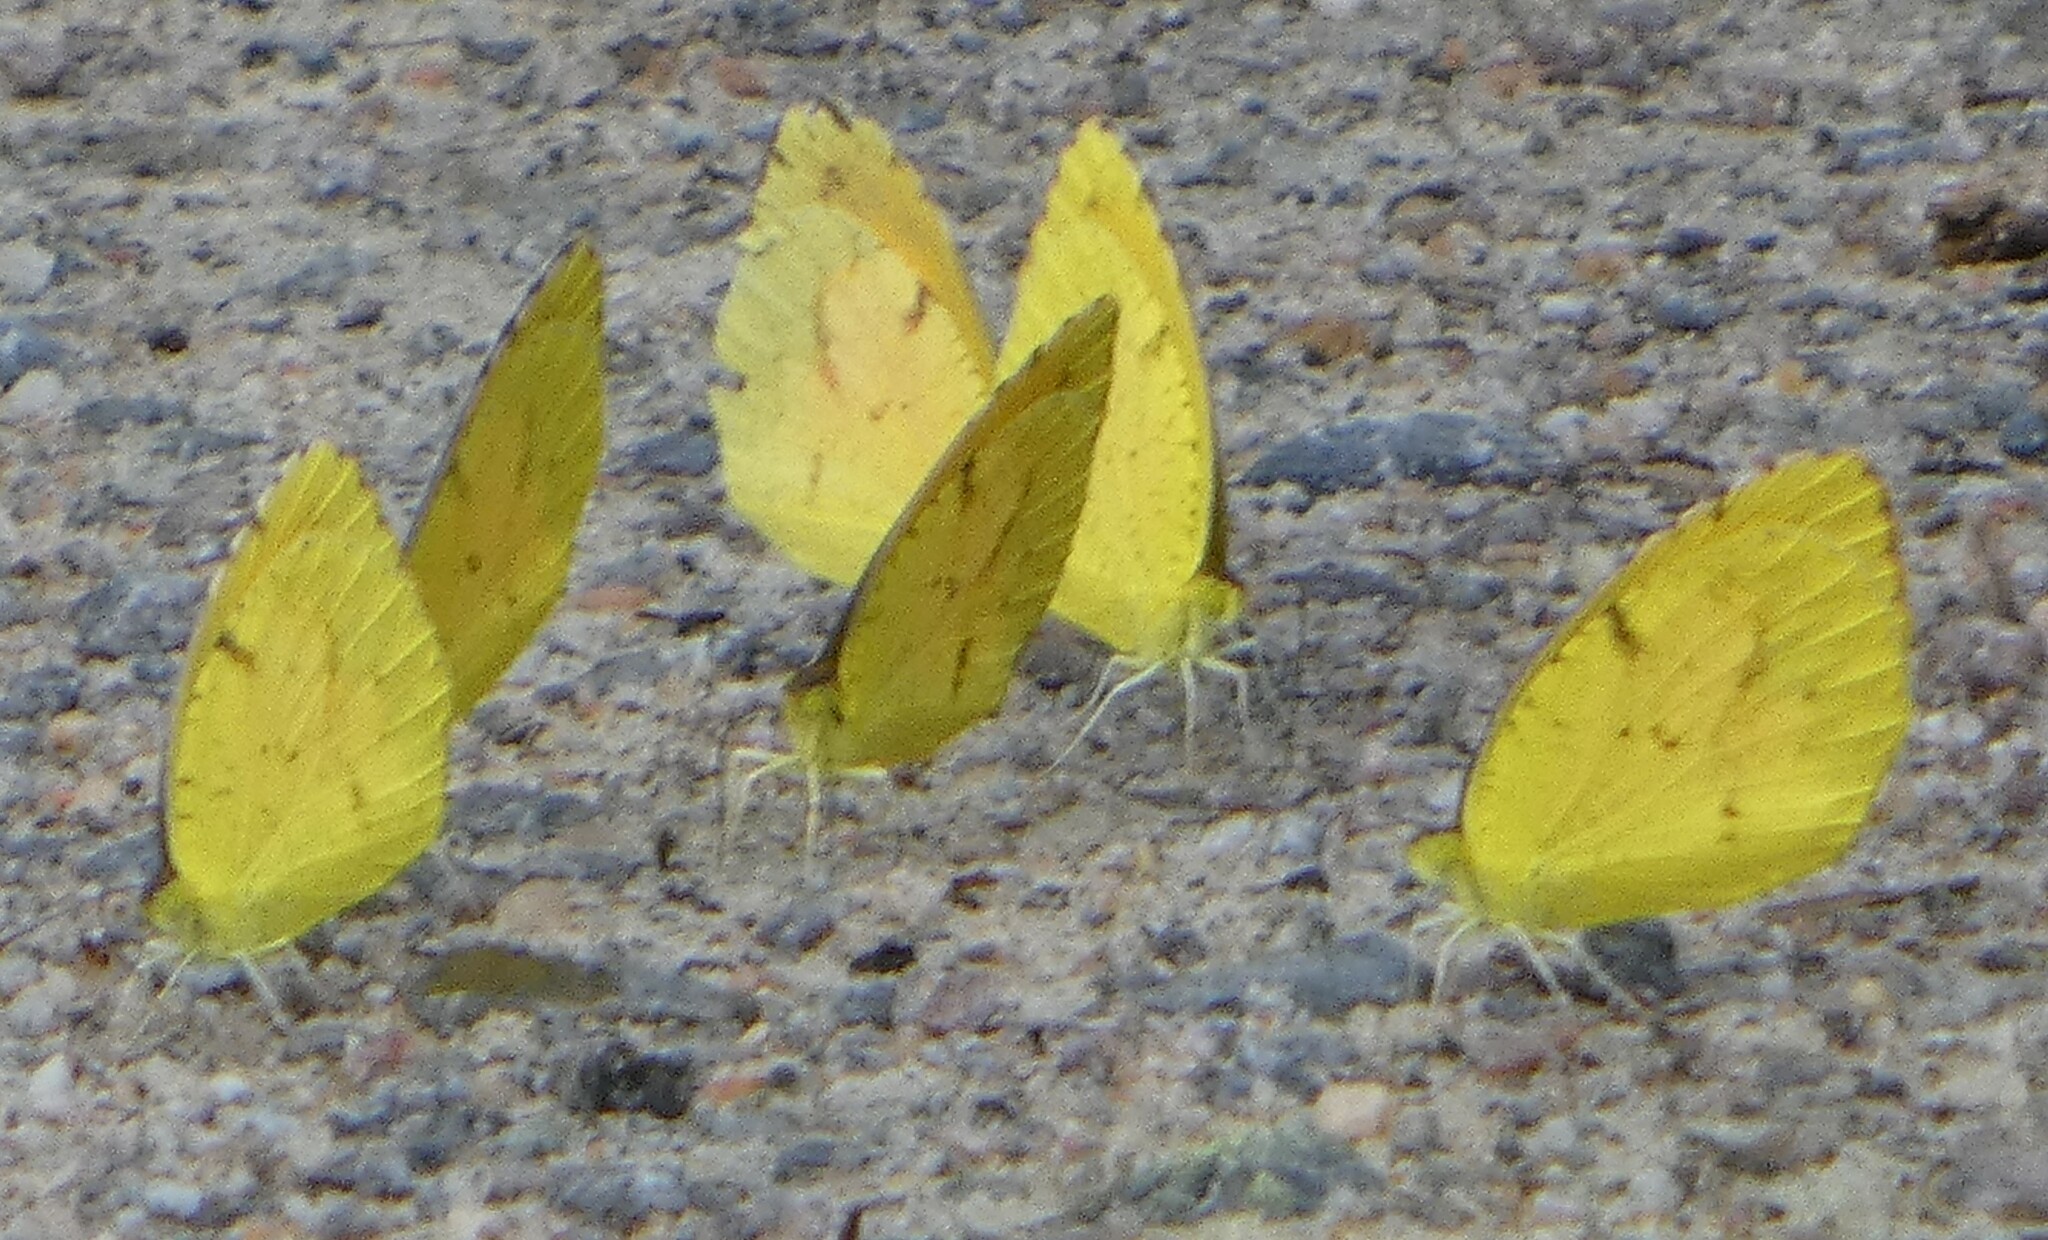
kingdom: Animalia
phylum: Arthropoda
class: Insecta
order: Lepidoptera
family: Pieridae
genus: Abaeis
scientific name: Abaeis nicippe
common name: Sleepy orange
